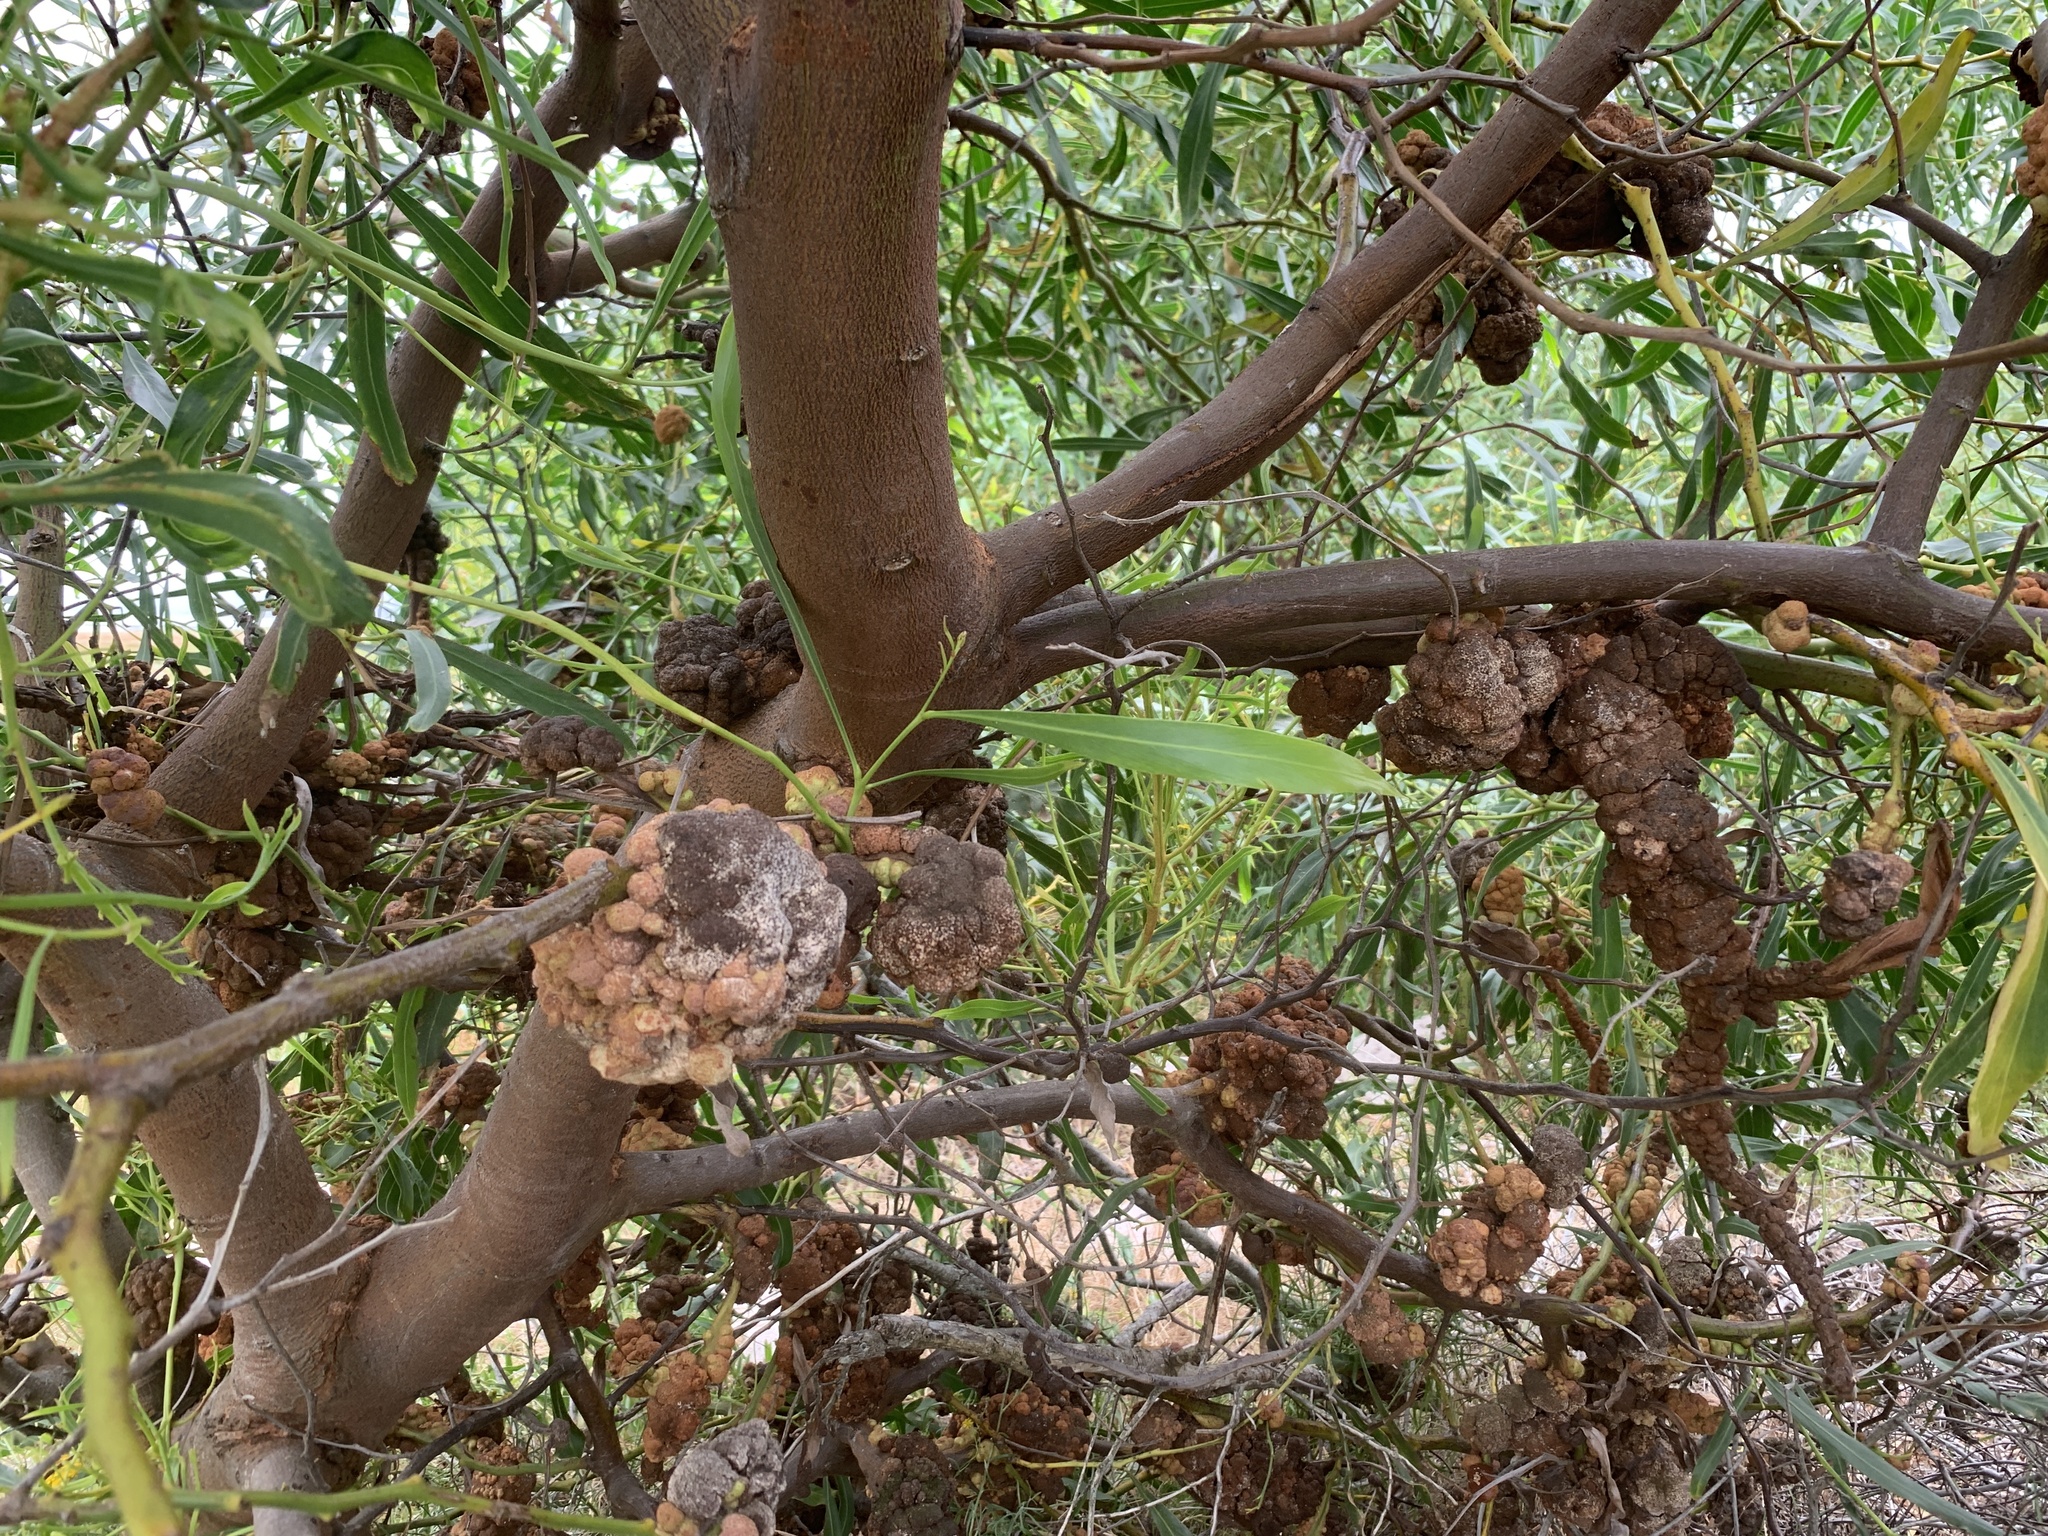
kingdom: Fungi
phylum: Basidiomycota
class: Pucciniomycetes
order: Pucciniales
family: Uromycladiaceae
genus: Uromycladium
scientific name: Uromycladium morrisii
